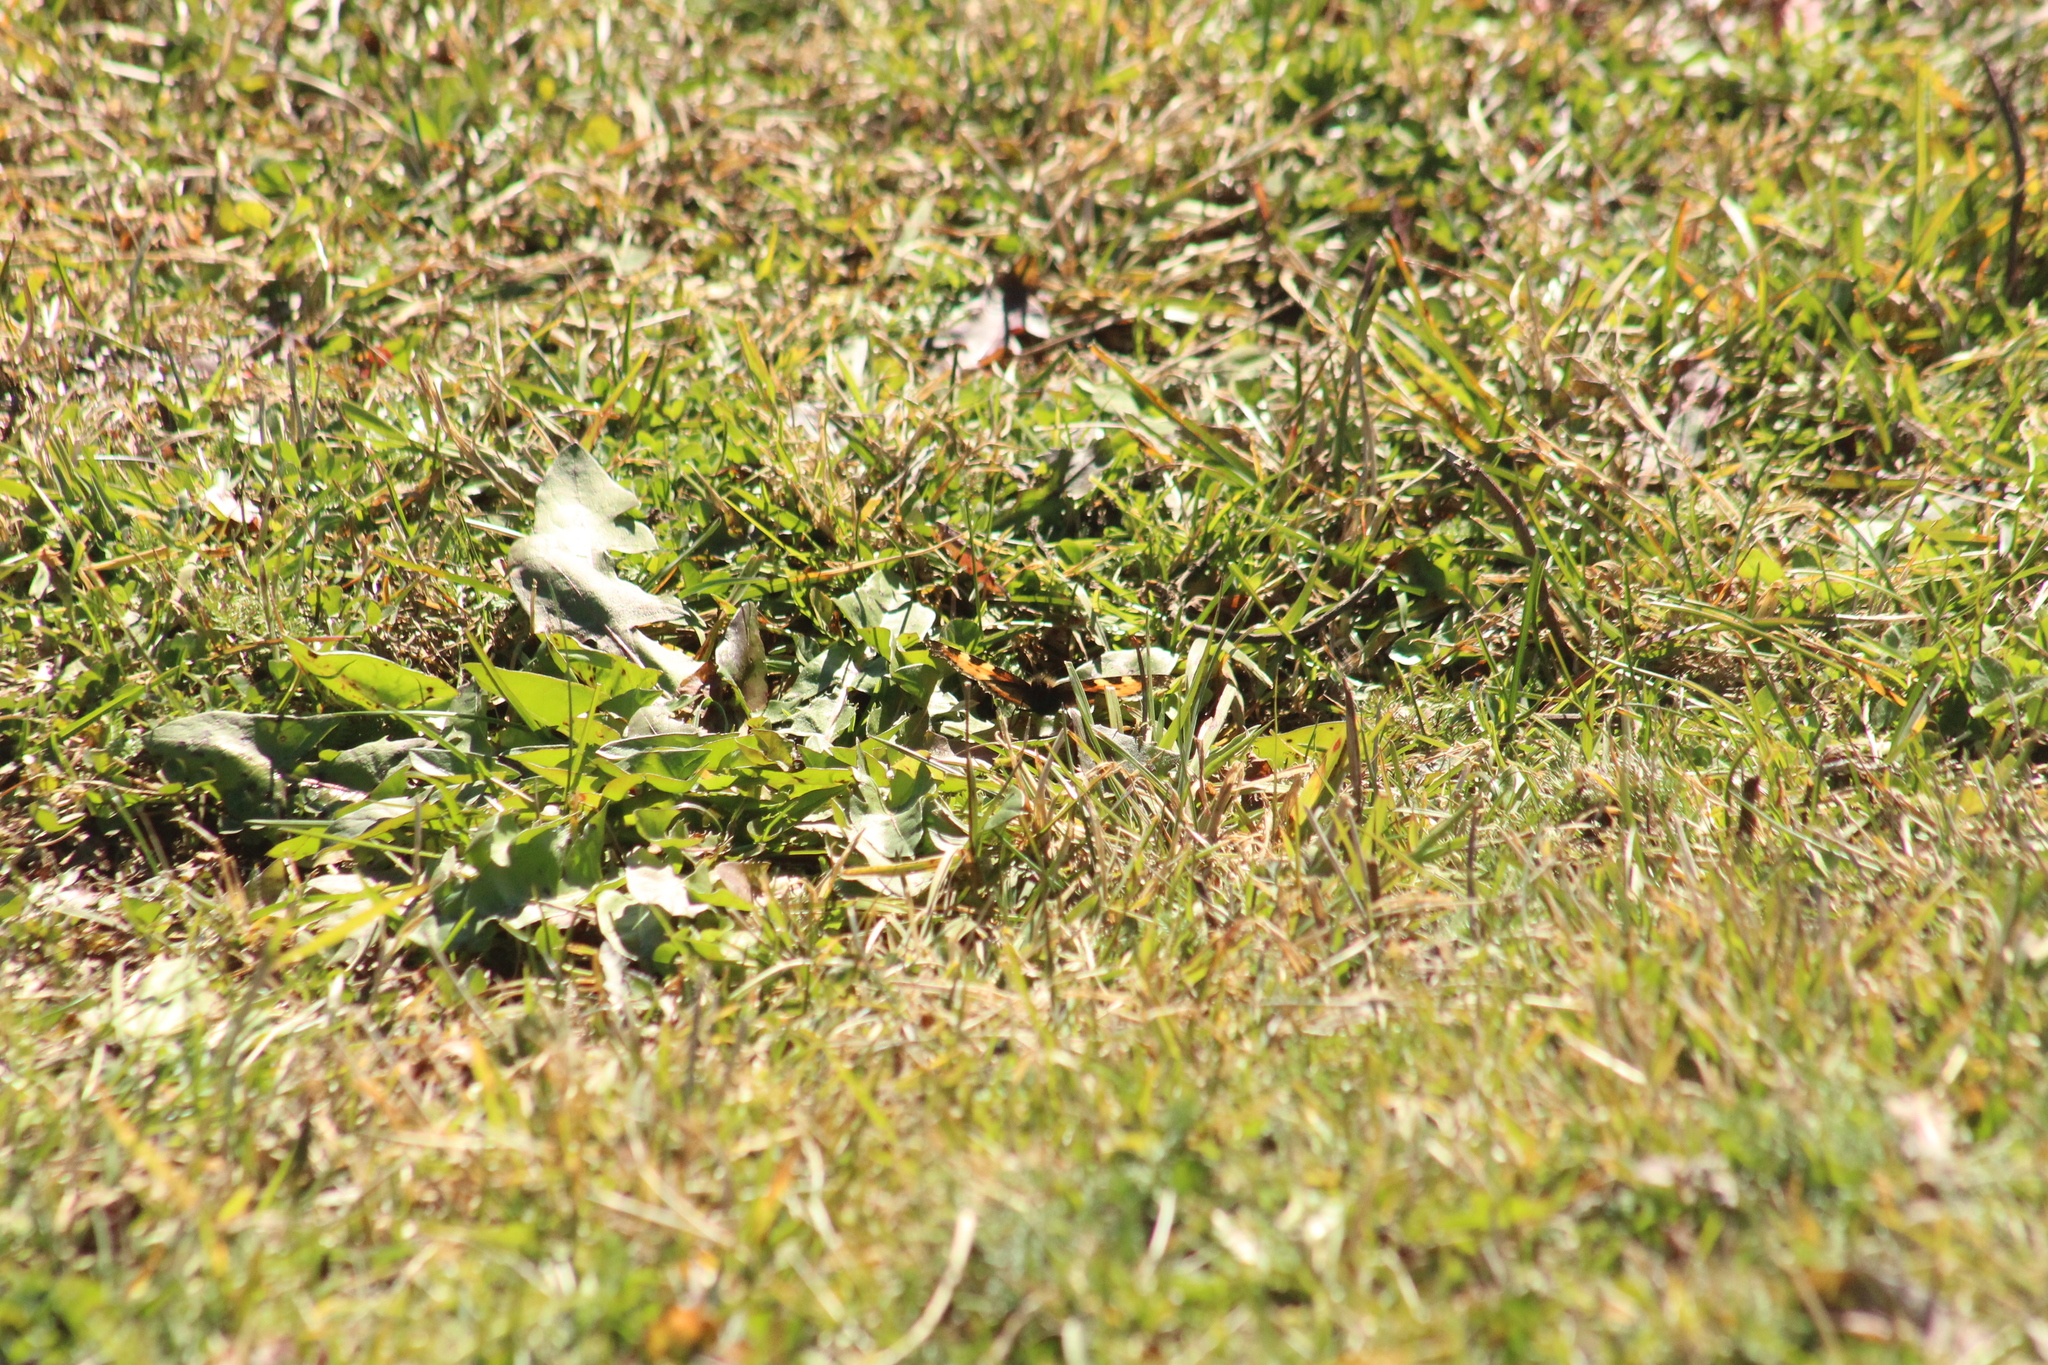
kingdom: Animalia
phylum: Arthropoda
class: Insecta
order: Lepidoptera
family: Nymphalidae
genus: Aglais
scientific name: Aglais urticae
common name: Small tortoiseshell
